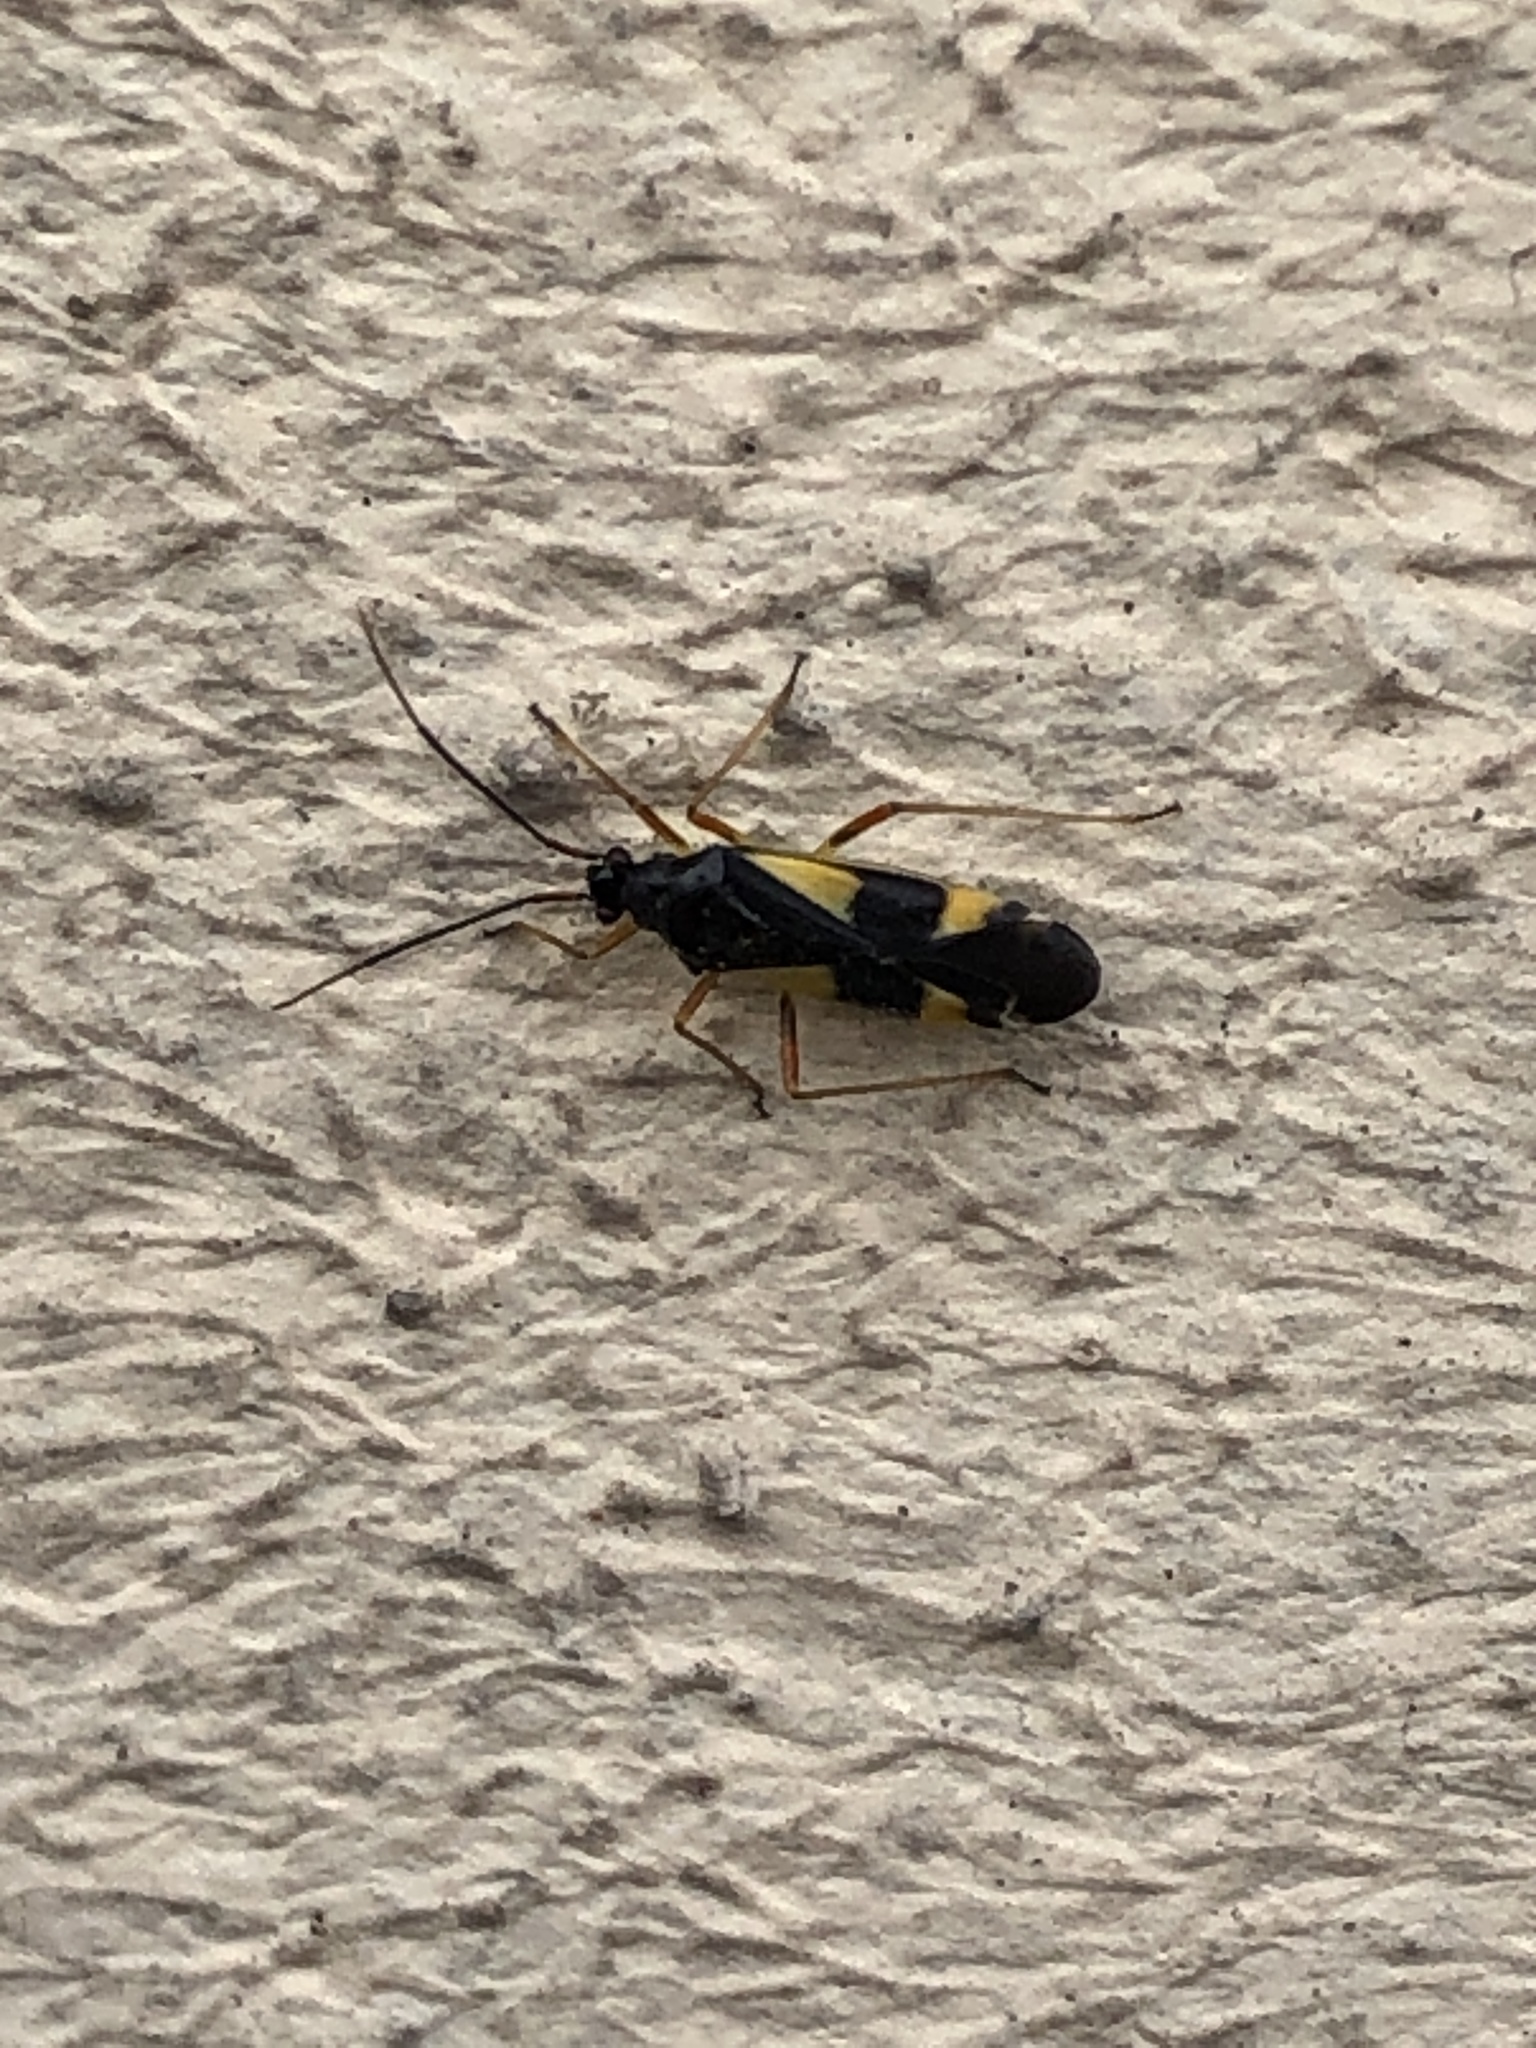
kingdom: Animalia
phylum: Arthropoda
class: Insecta
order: Hemiptera
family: Miridae
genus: Dryophilocoris
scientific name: Dryophilocoris flavoquadrimaculatus
